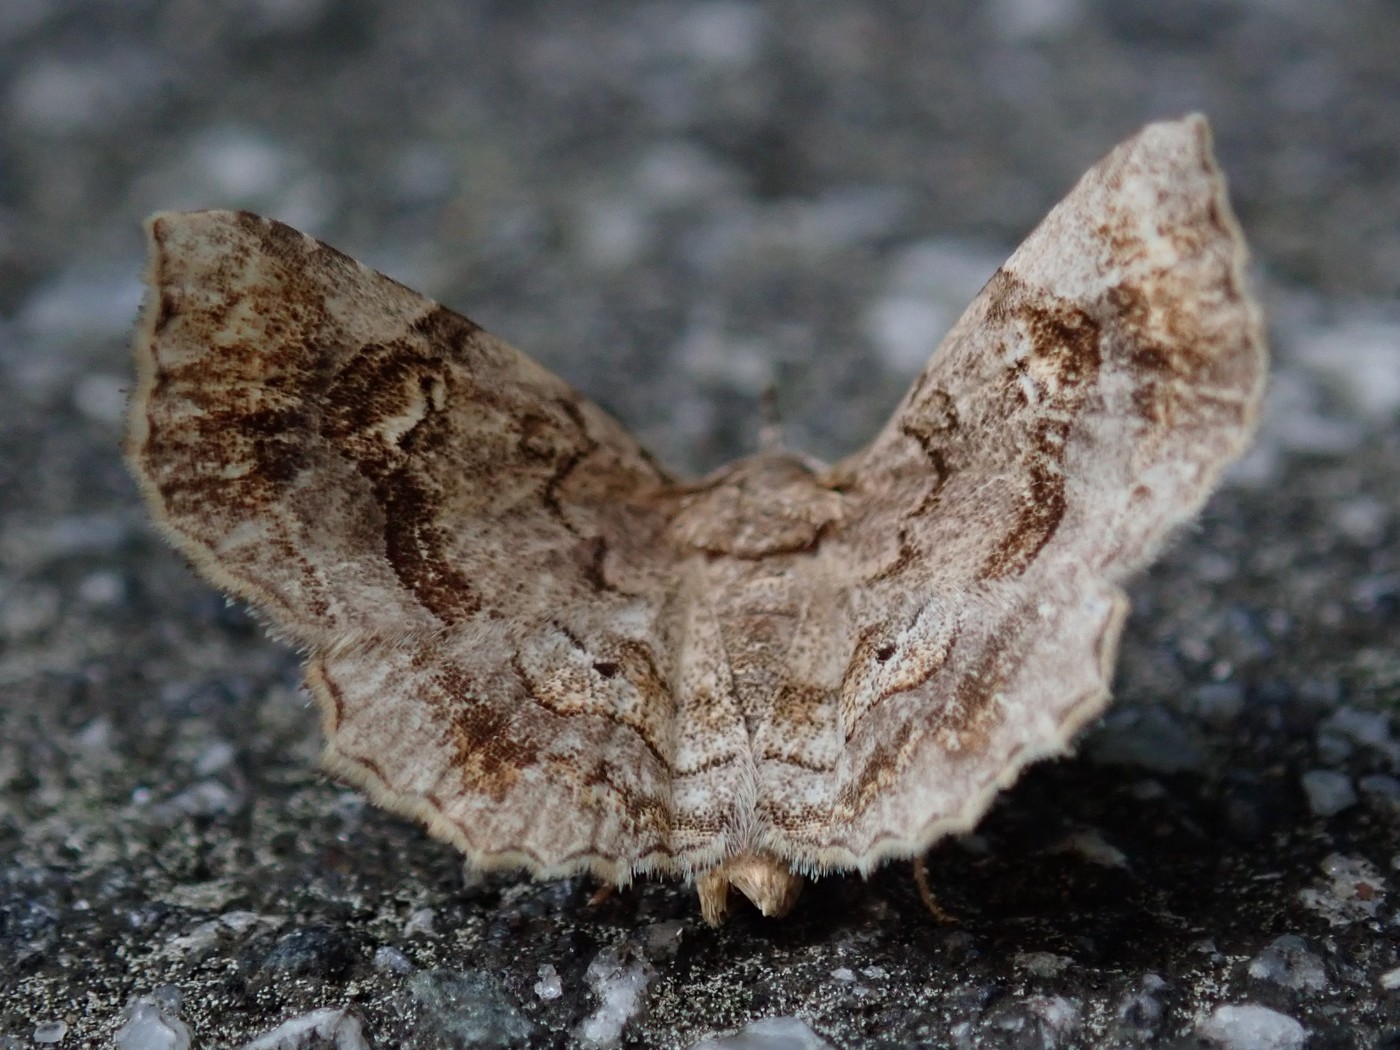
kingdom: Animalia
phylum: Arthropoda
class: Insecta
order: Lepidoptera
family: Erebidae
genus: Pangrapta
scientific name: Pangrapta decoralis
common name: Decorated owlet
